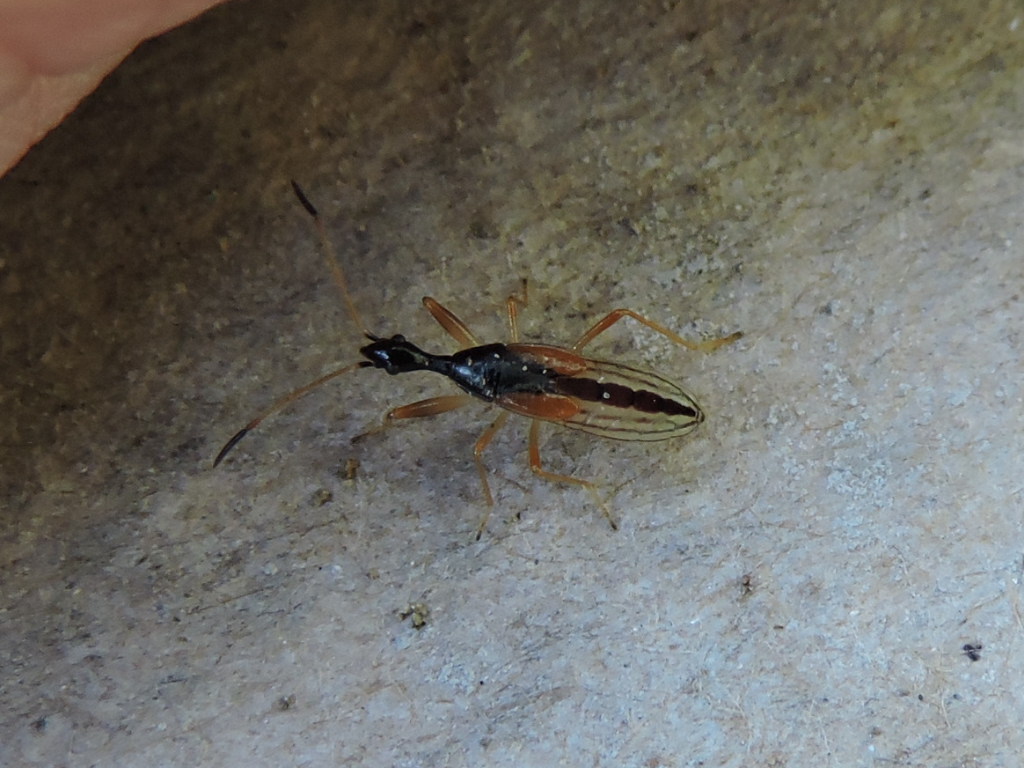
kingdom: Animalia
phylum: Arthropoda
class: Insecta
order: Hemiptera
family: Rhyparochromidae
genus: Myodocha
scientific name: Myodocha serripes
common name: Long-necked seed bug
